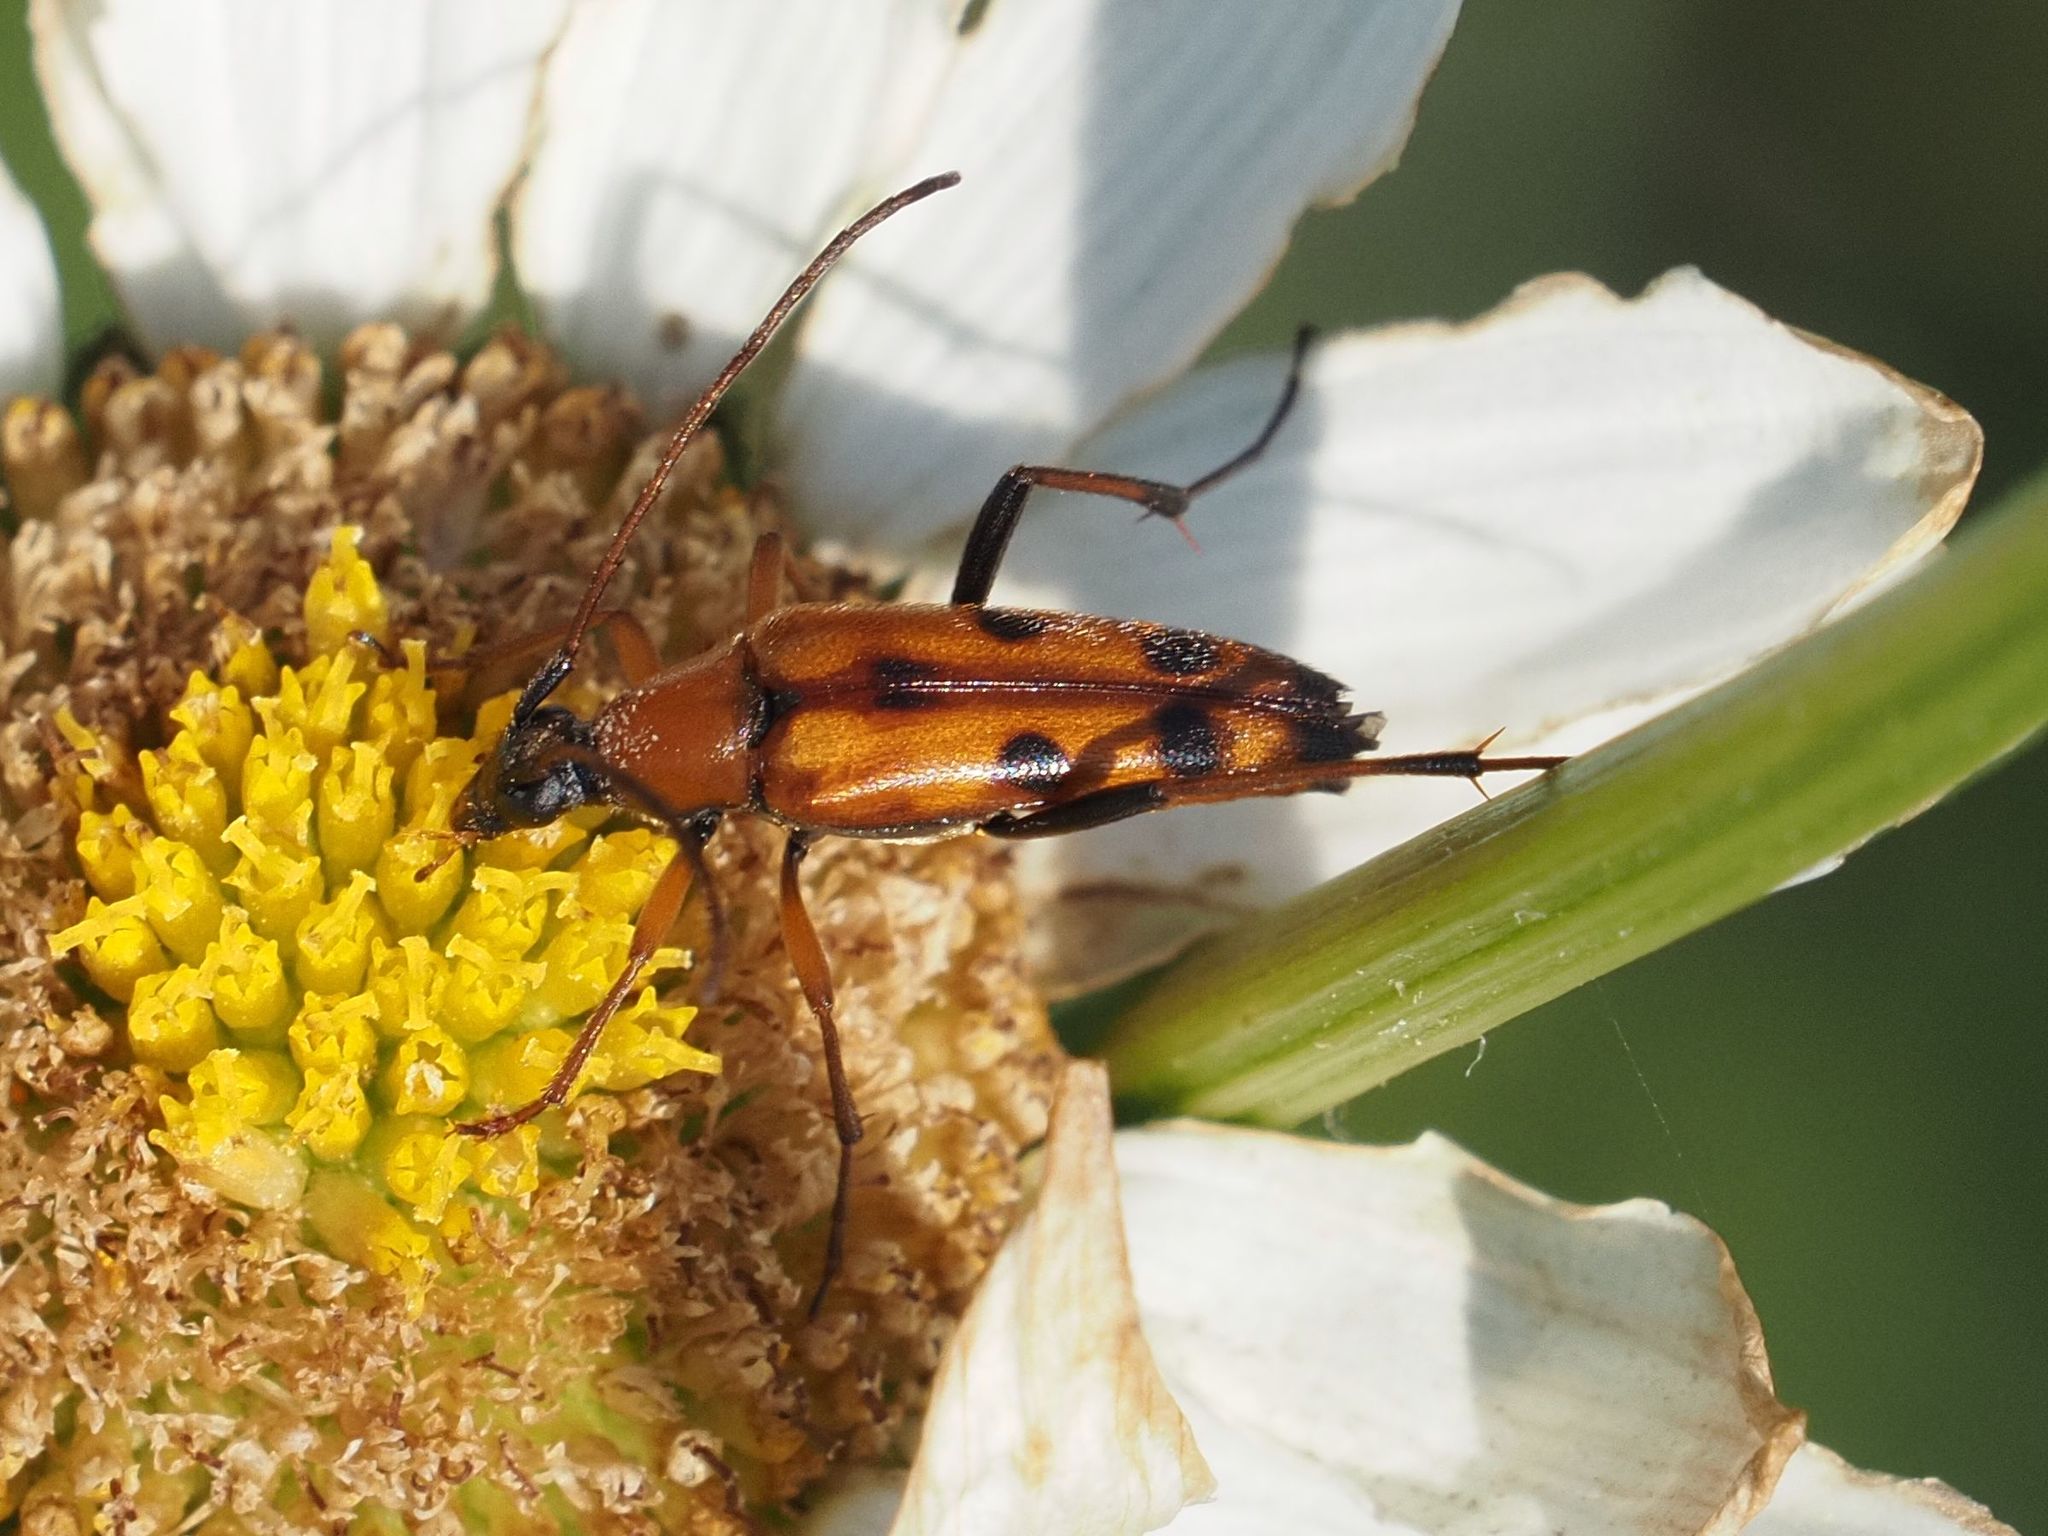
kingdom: Animalia
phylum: Arthropoda
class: Insecta
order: Coleoptera
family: Cerambycidae
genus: Stenurella
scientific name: Stenurella septempunctata
